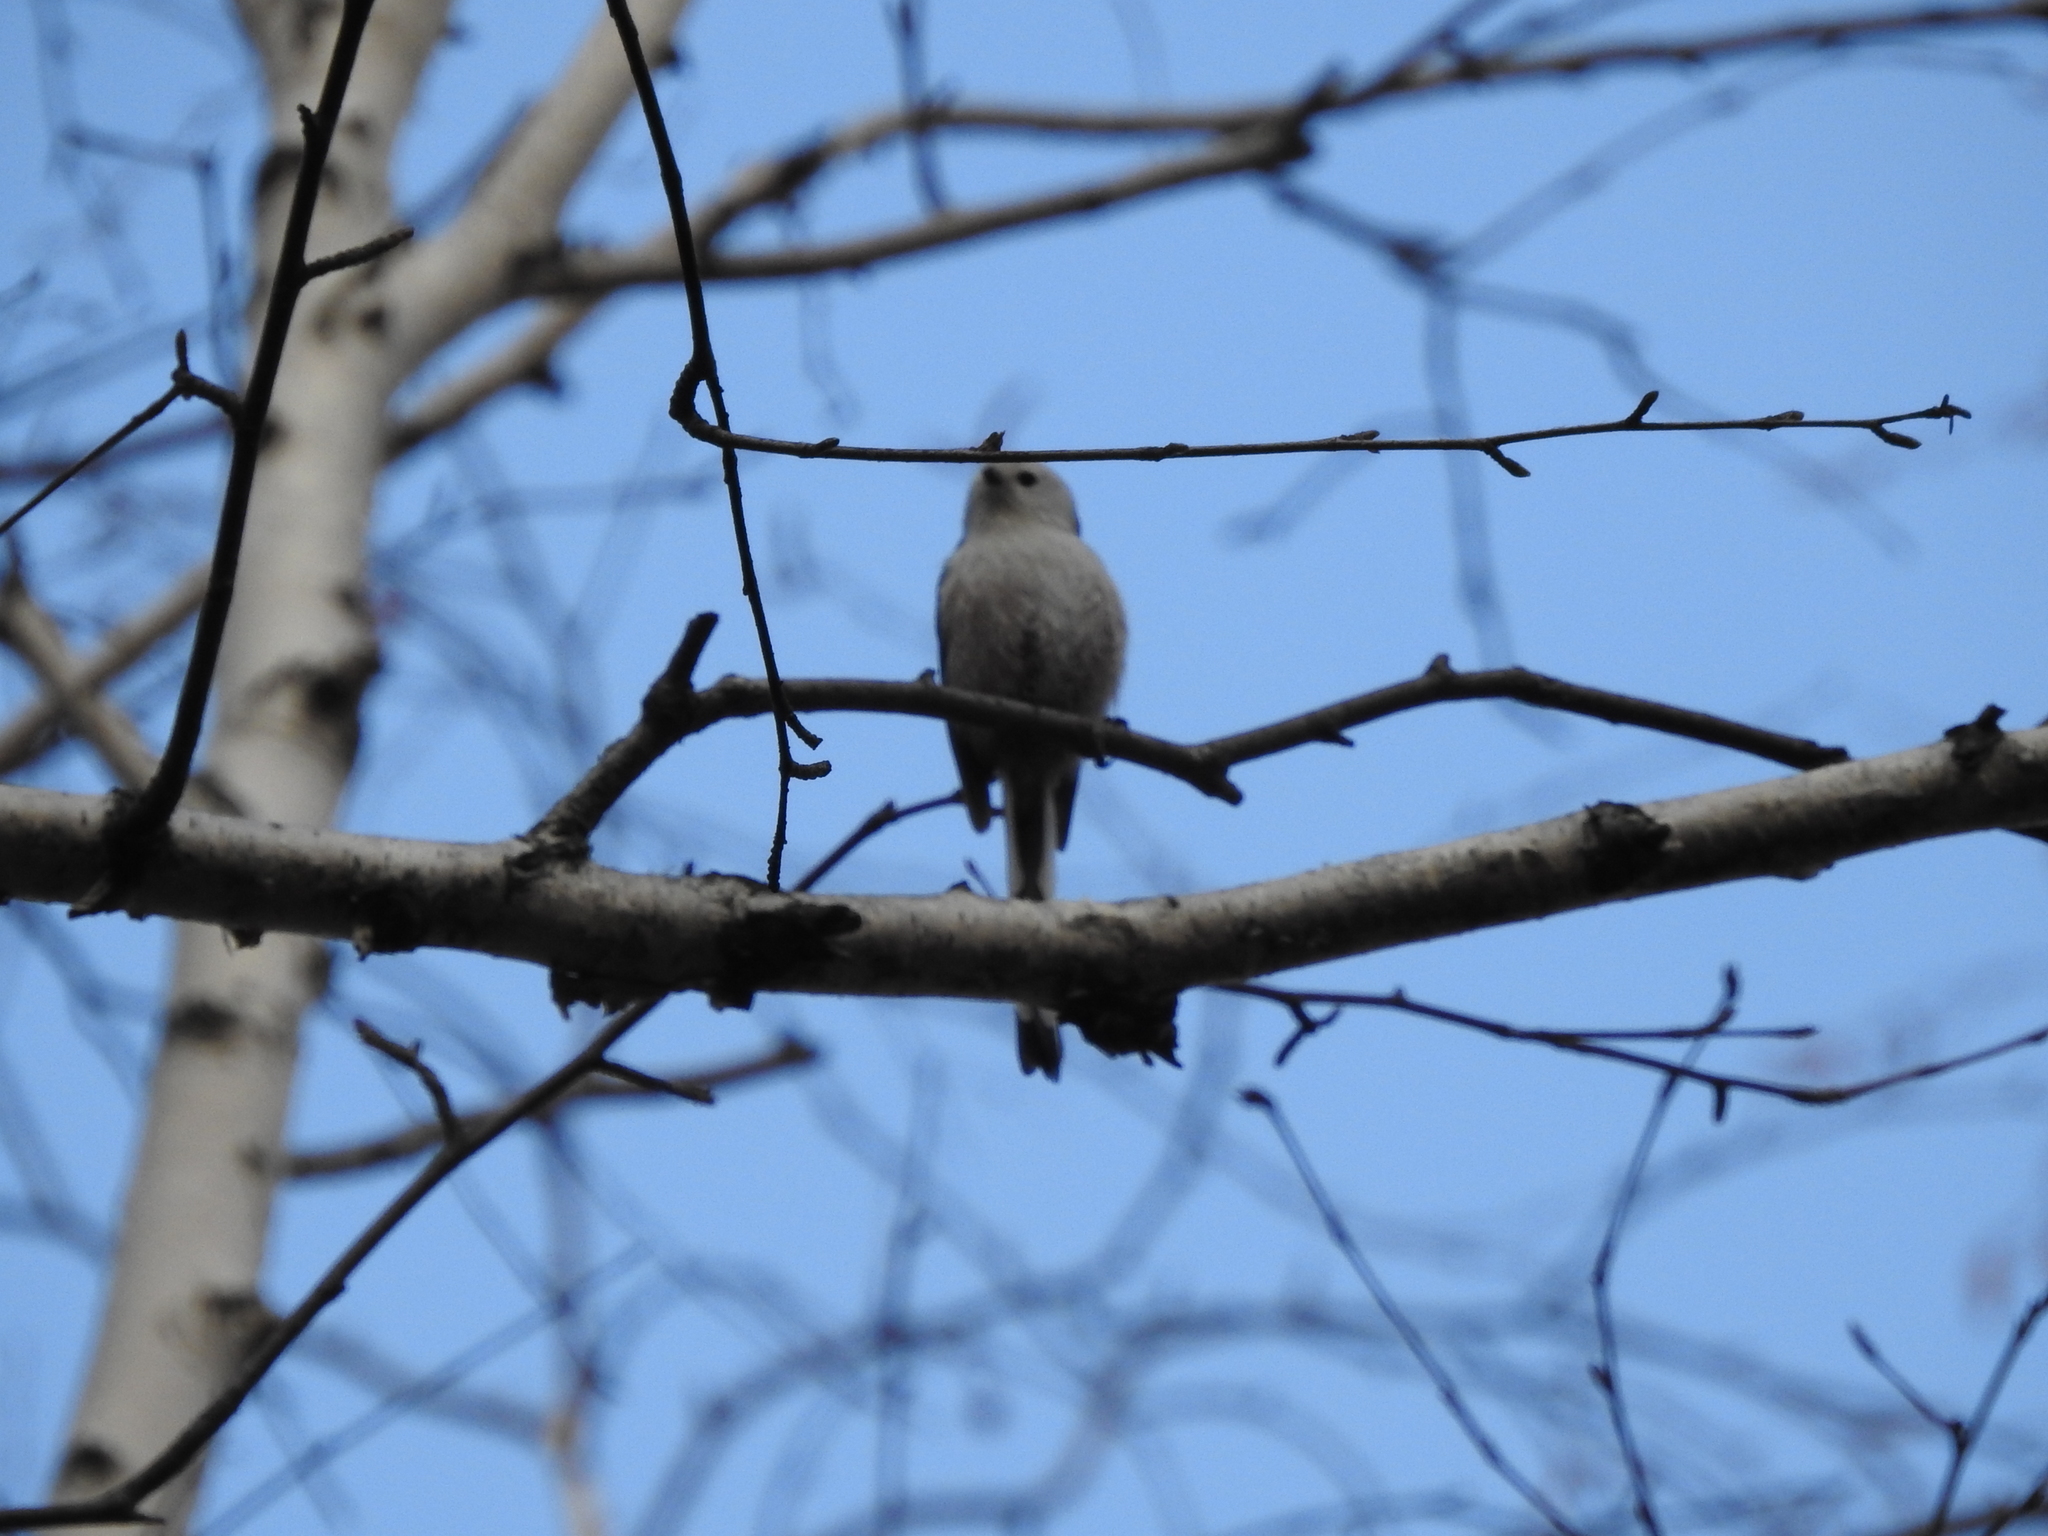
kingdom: Animalia
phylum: Chordata
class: Aves
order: Passeriformes
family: Aegithalidae
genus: Aegithalos
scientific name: Aegithalos caudatus
